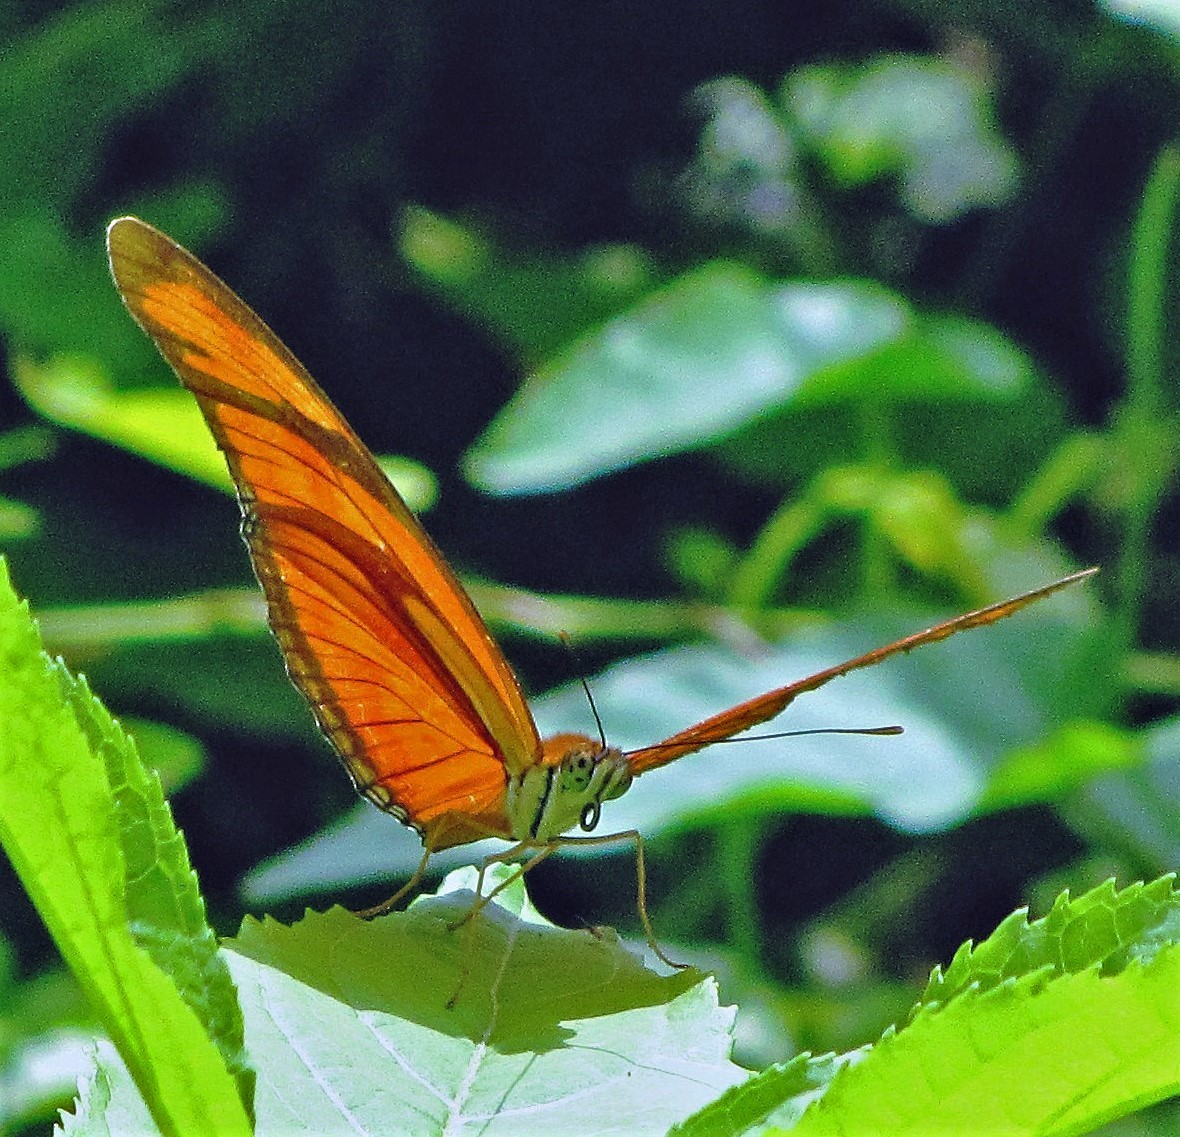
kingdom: Animalia
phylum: Arthropoda
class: Insecta
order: Lepidoptera
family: Nymphalidae
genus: Dryas
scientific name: Dryas iulia
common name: Flambeau
